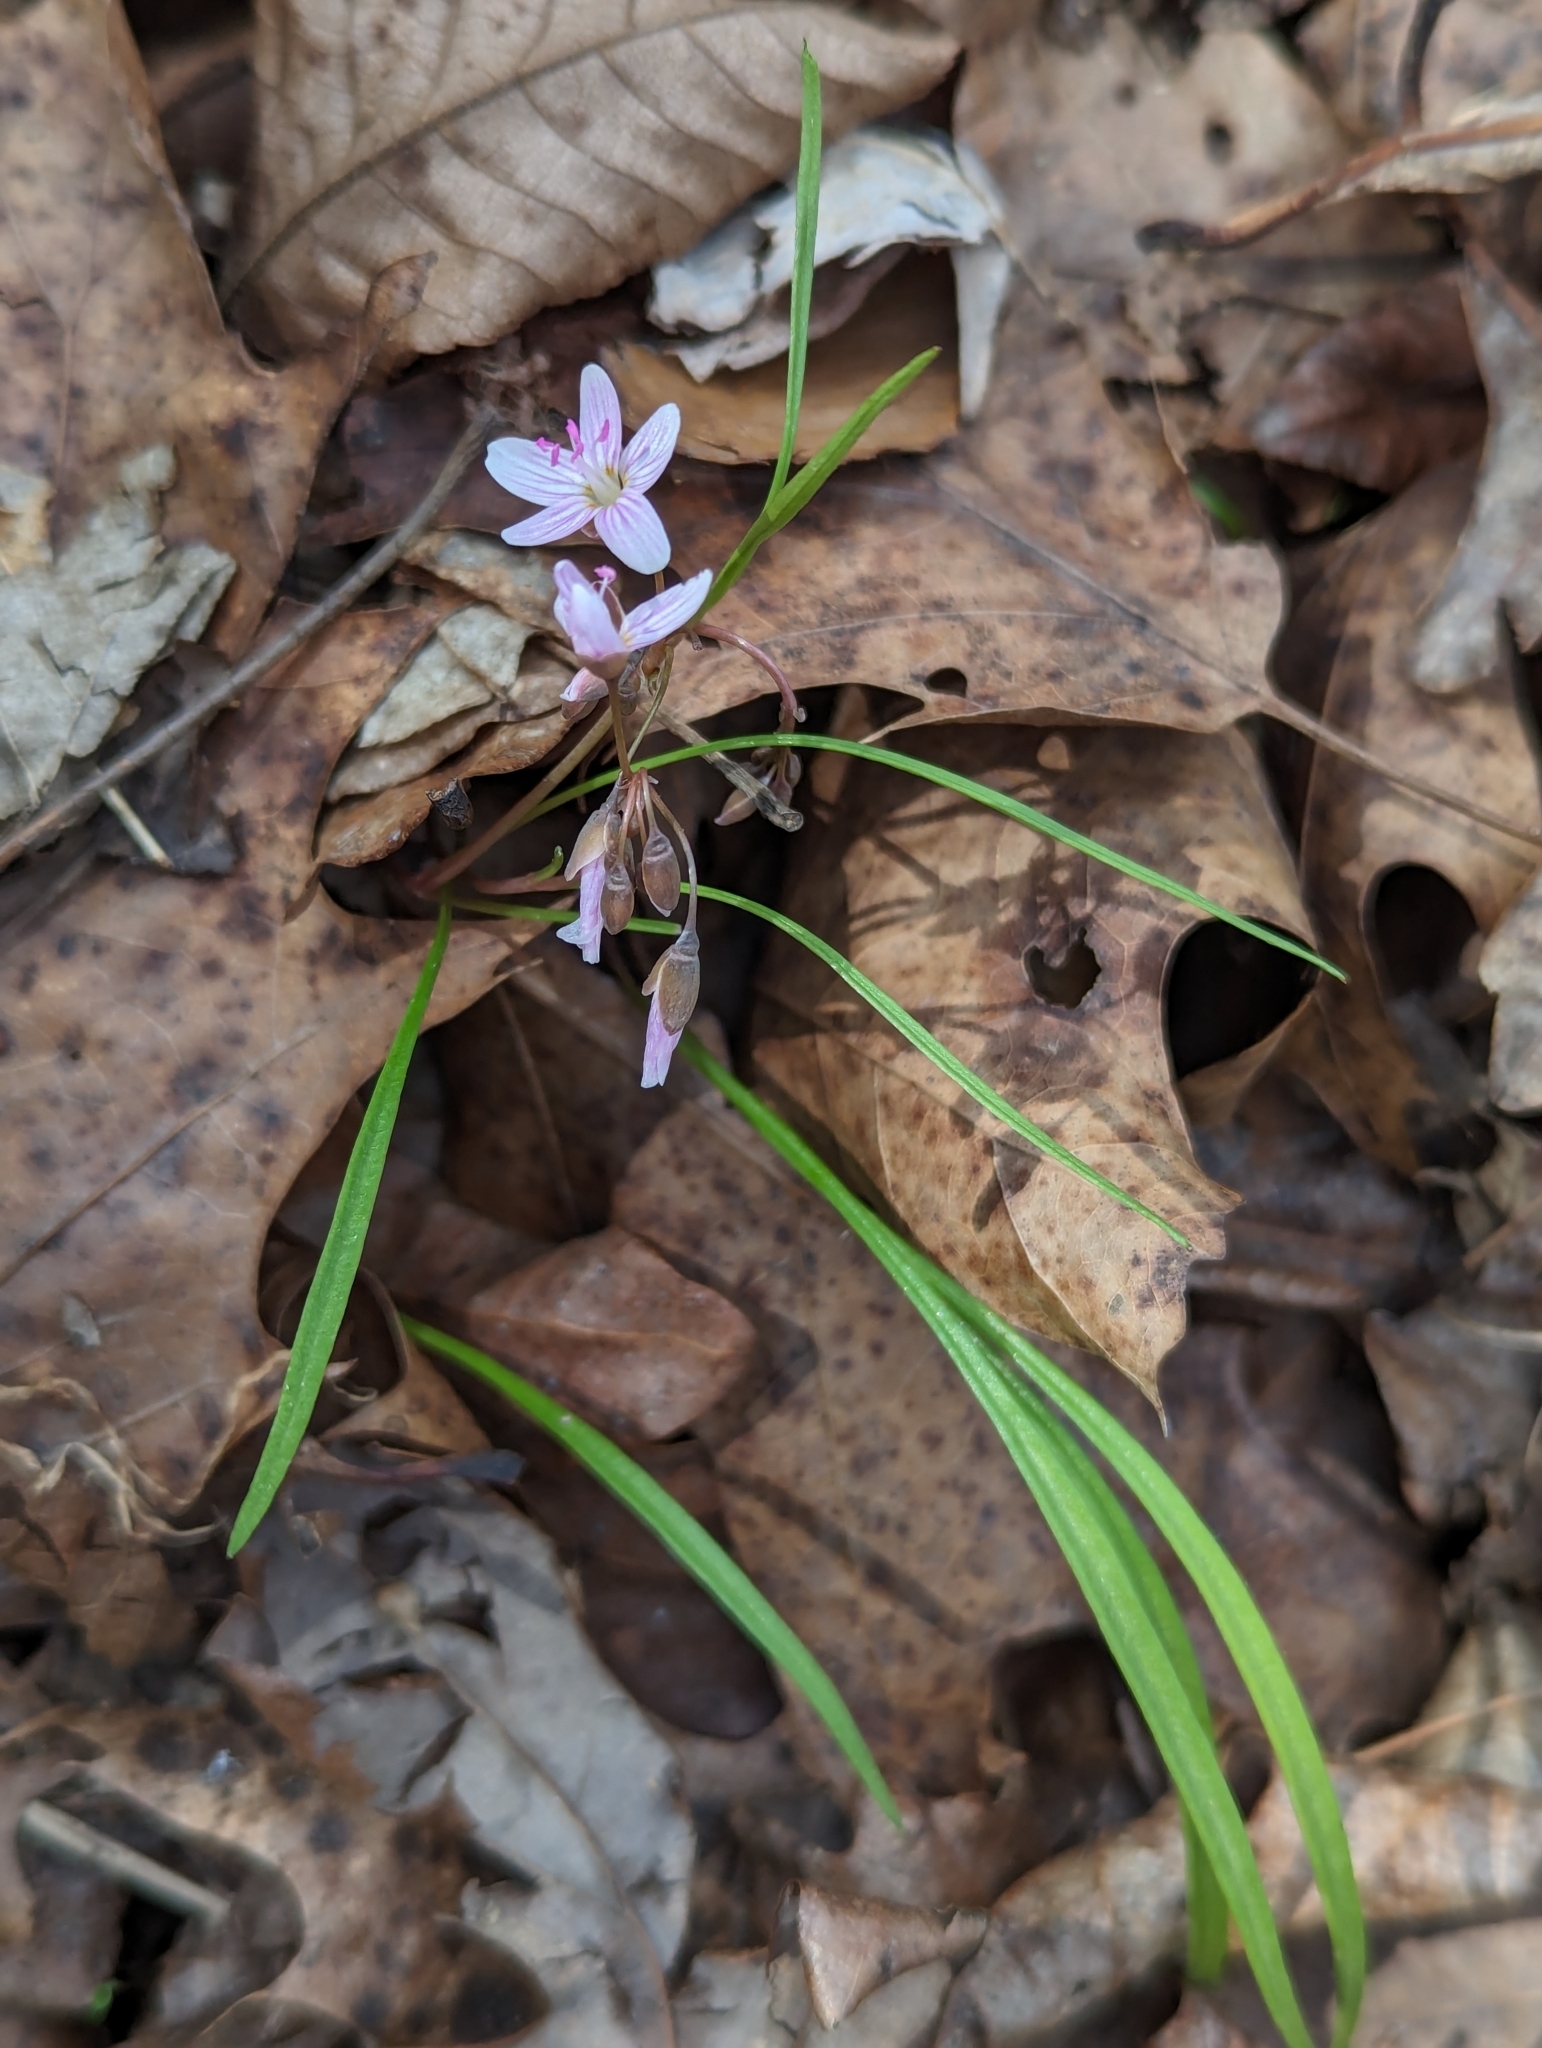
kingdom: Plantae
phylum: Tracheophyta
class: Magnoliopsida
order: Caryophyllales
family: Montiaceae
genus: Claytonia
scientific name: Claytonia virginica
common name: Virginia springbeauty
